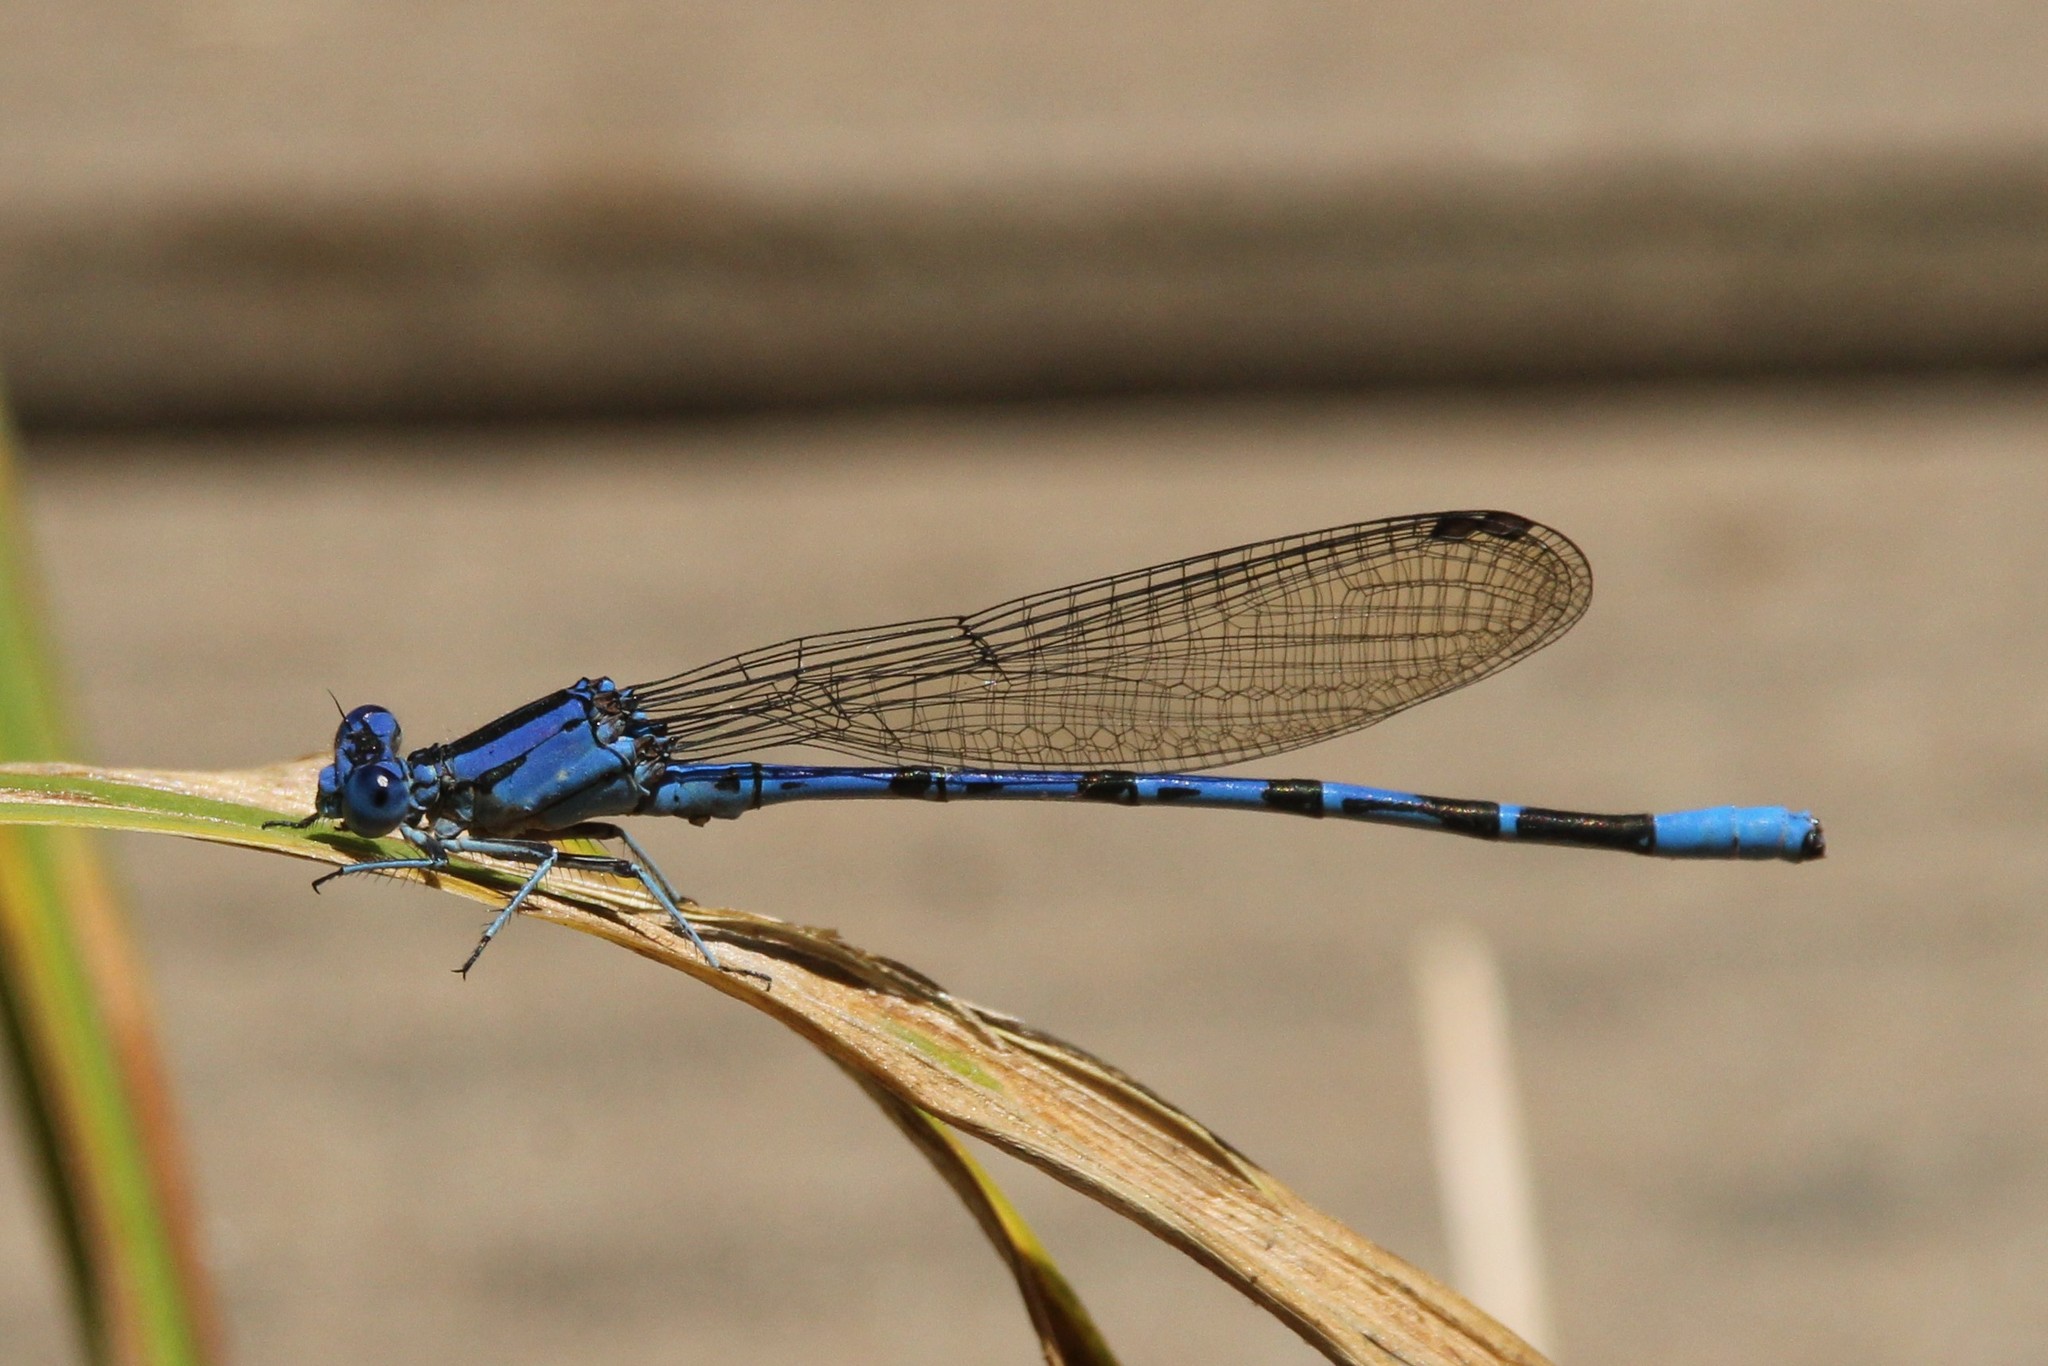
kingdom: Animalia
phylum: Arthropoda
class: Insecta
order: Odonata
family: Coenagrionidae
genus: Argia
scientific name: Argia vivida
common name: Vivid dancer
